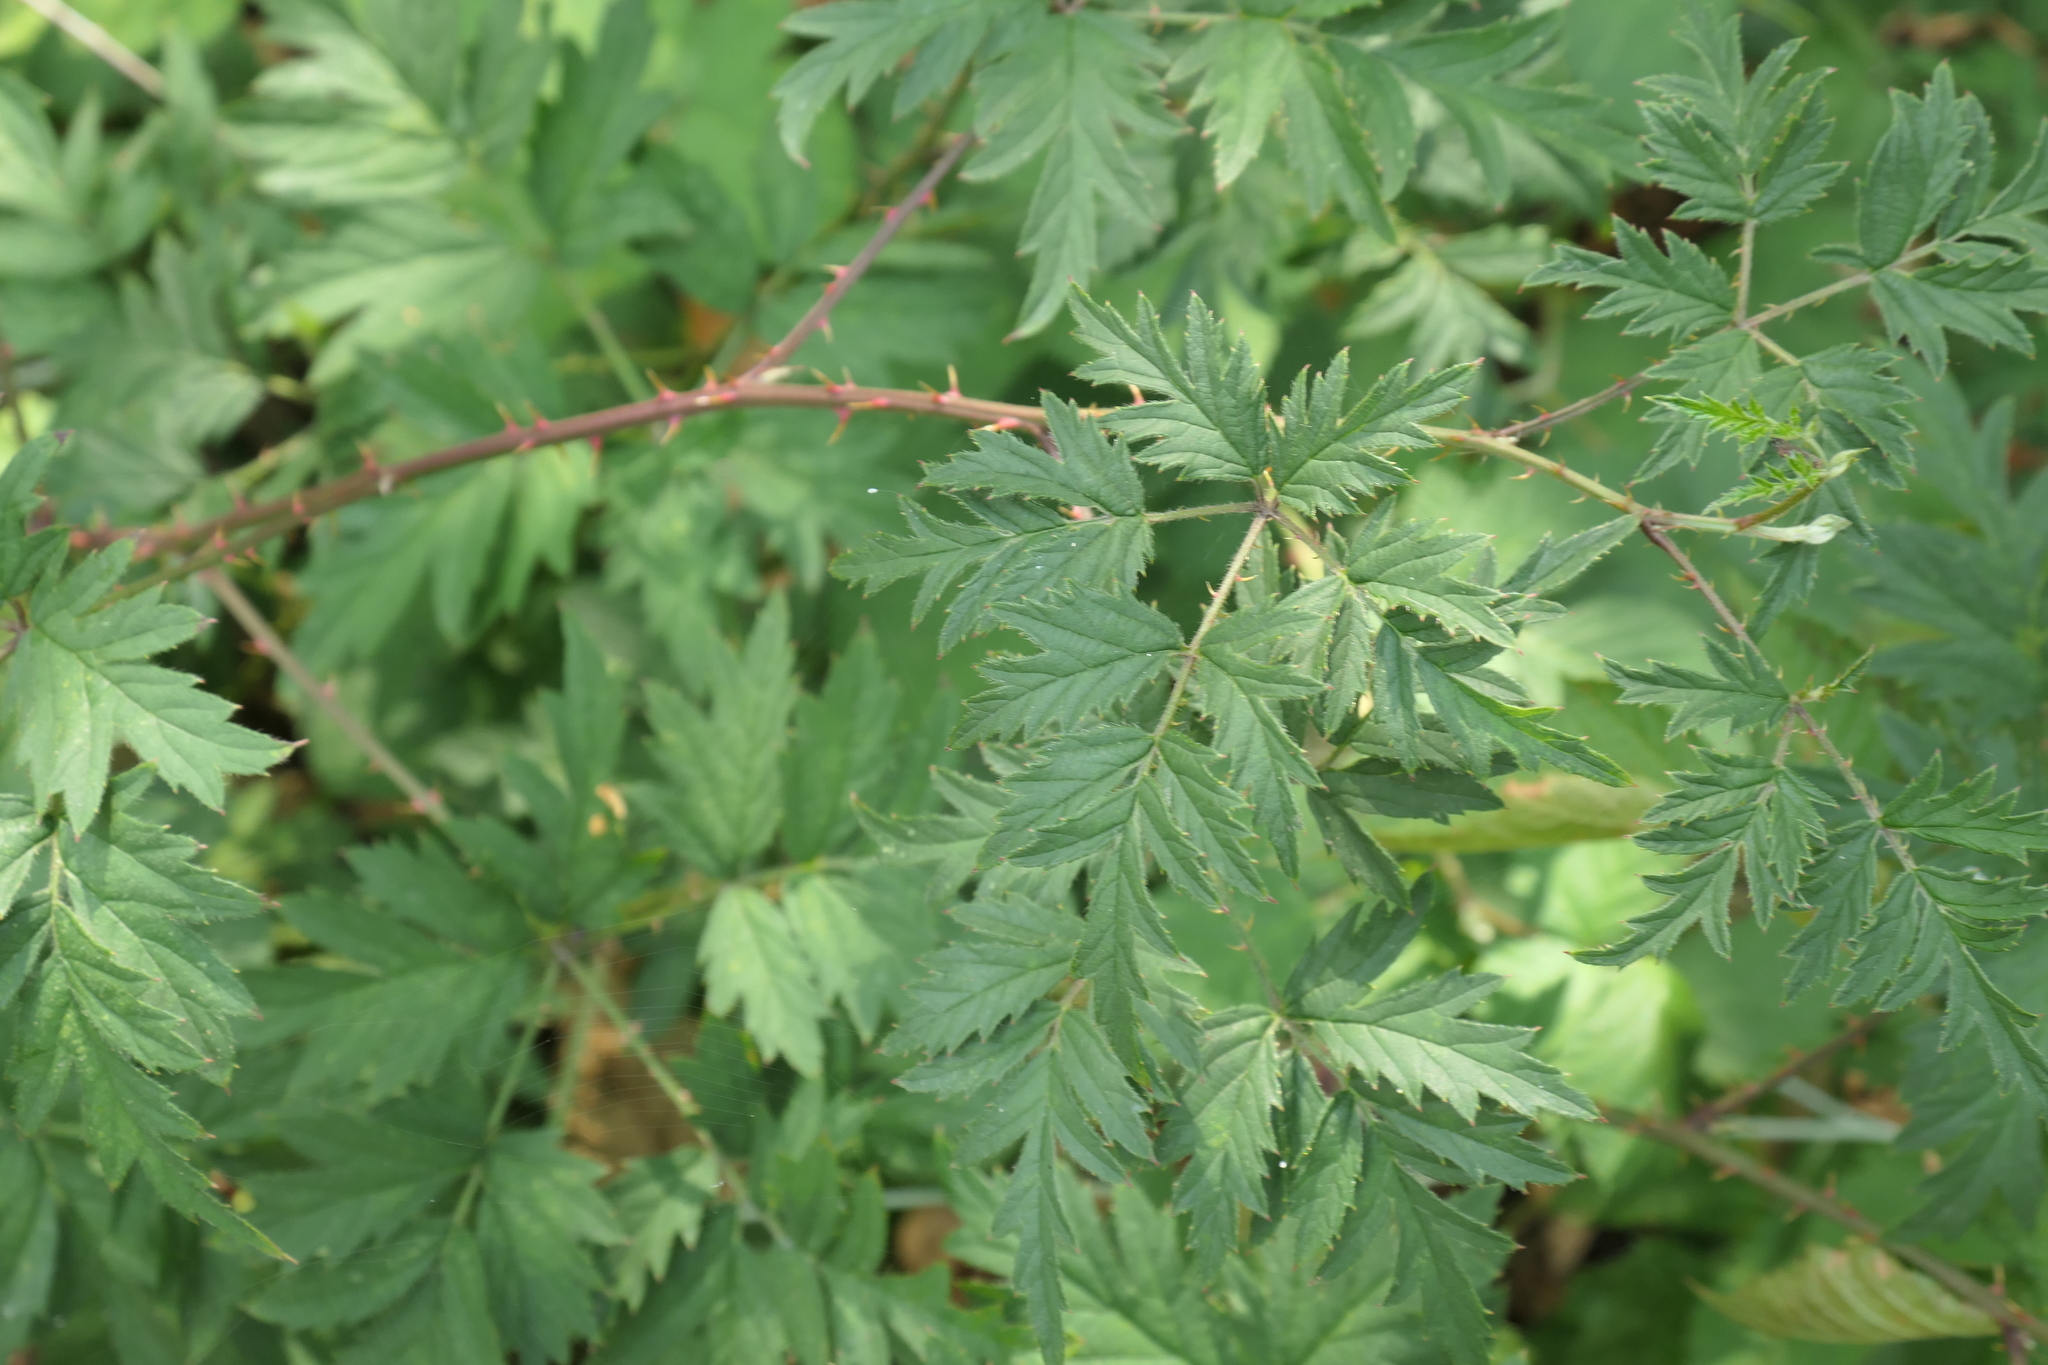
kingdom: Plantae
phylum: Tracheophyta
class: Magnoliopsida
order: Rosales
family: Rosaceae
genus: Rubus
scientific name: Rubus laciniatus
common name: Evergreen blackberry
